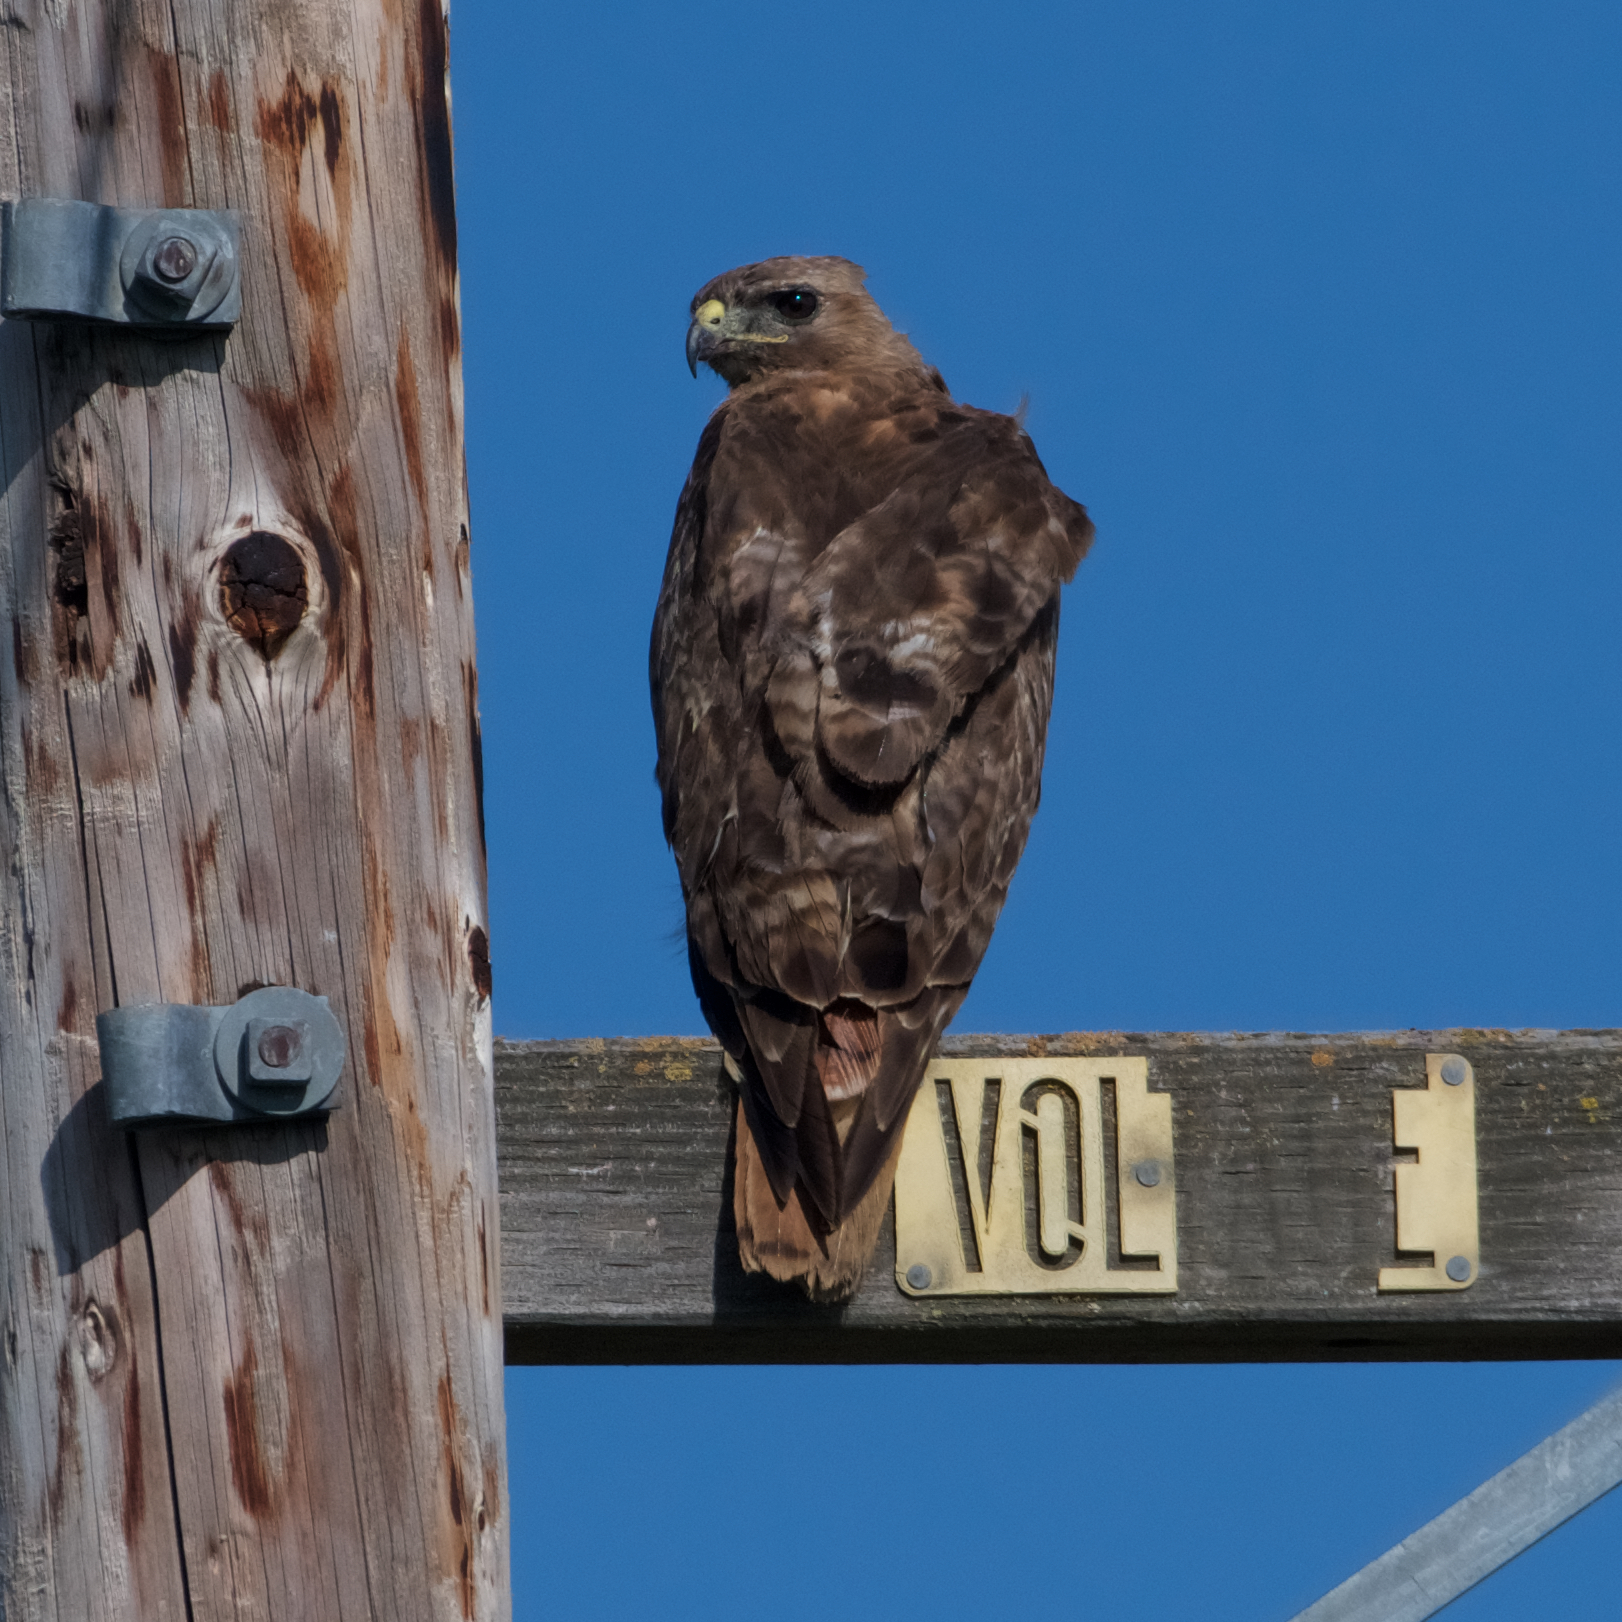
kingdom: Animalia
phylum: Chordata
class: Aves
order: Accipitriformes
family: Accipitridae
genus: Buteo
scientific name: Buteo jamaicensis
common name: Red-tailed hawk
